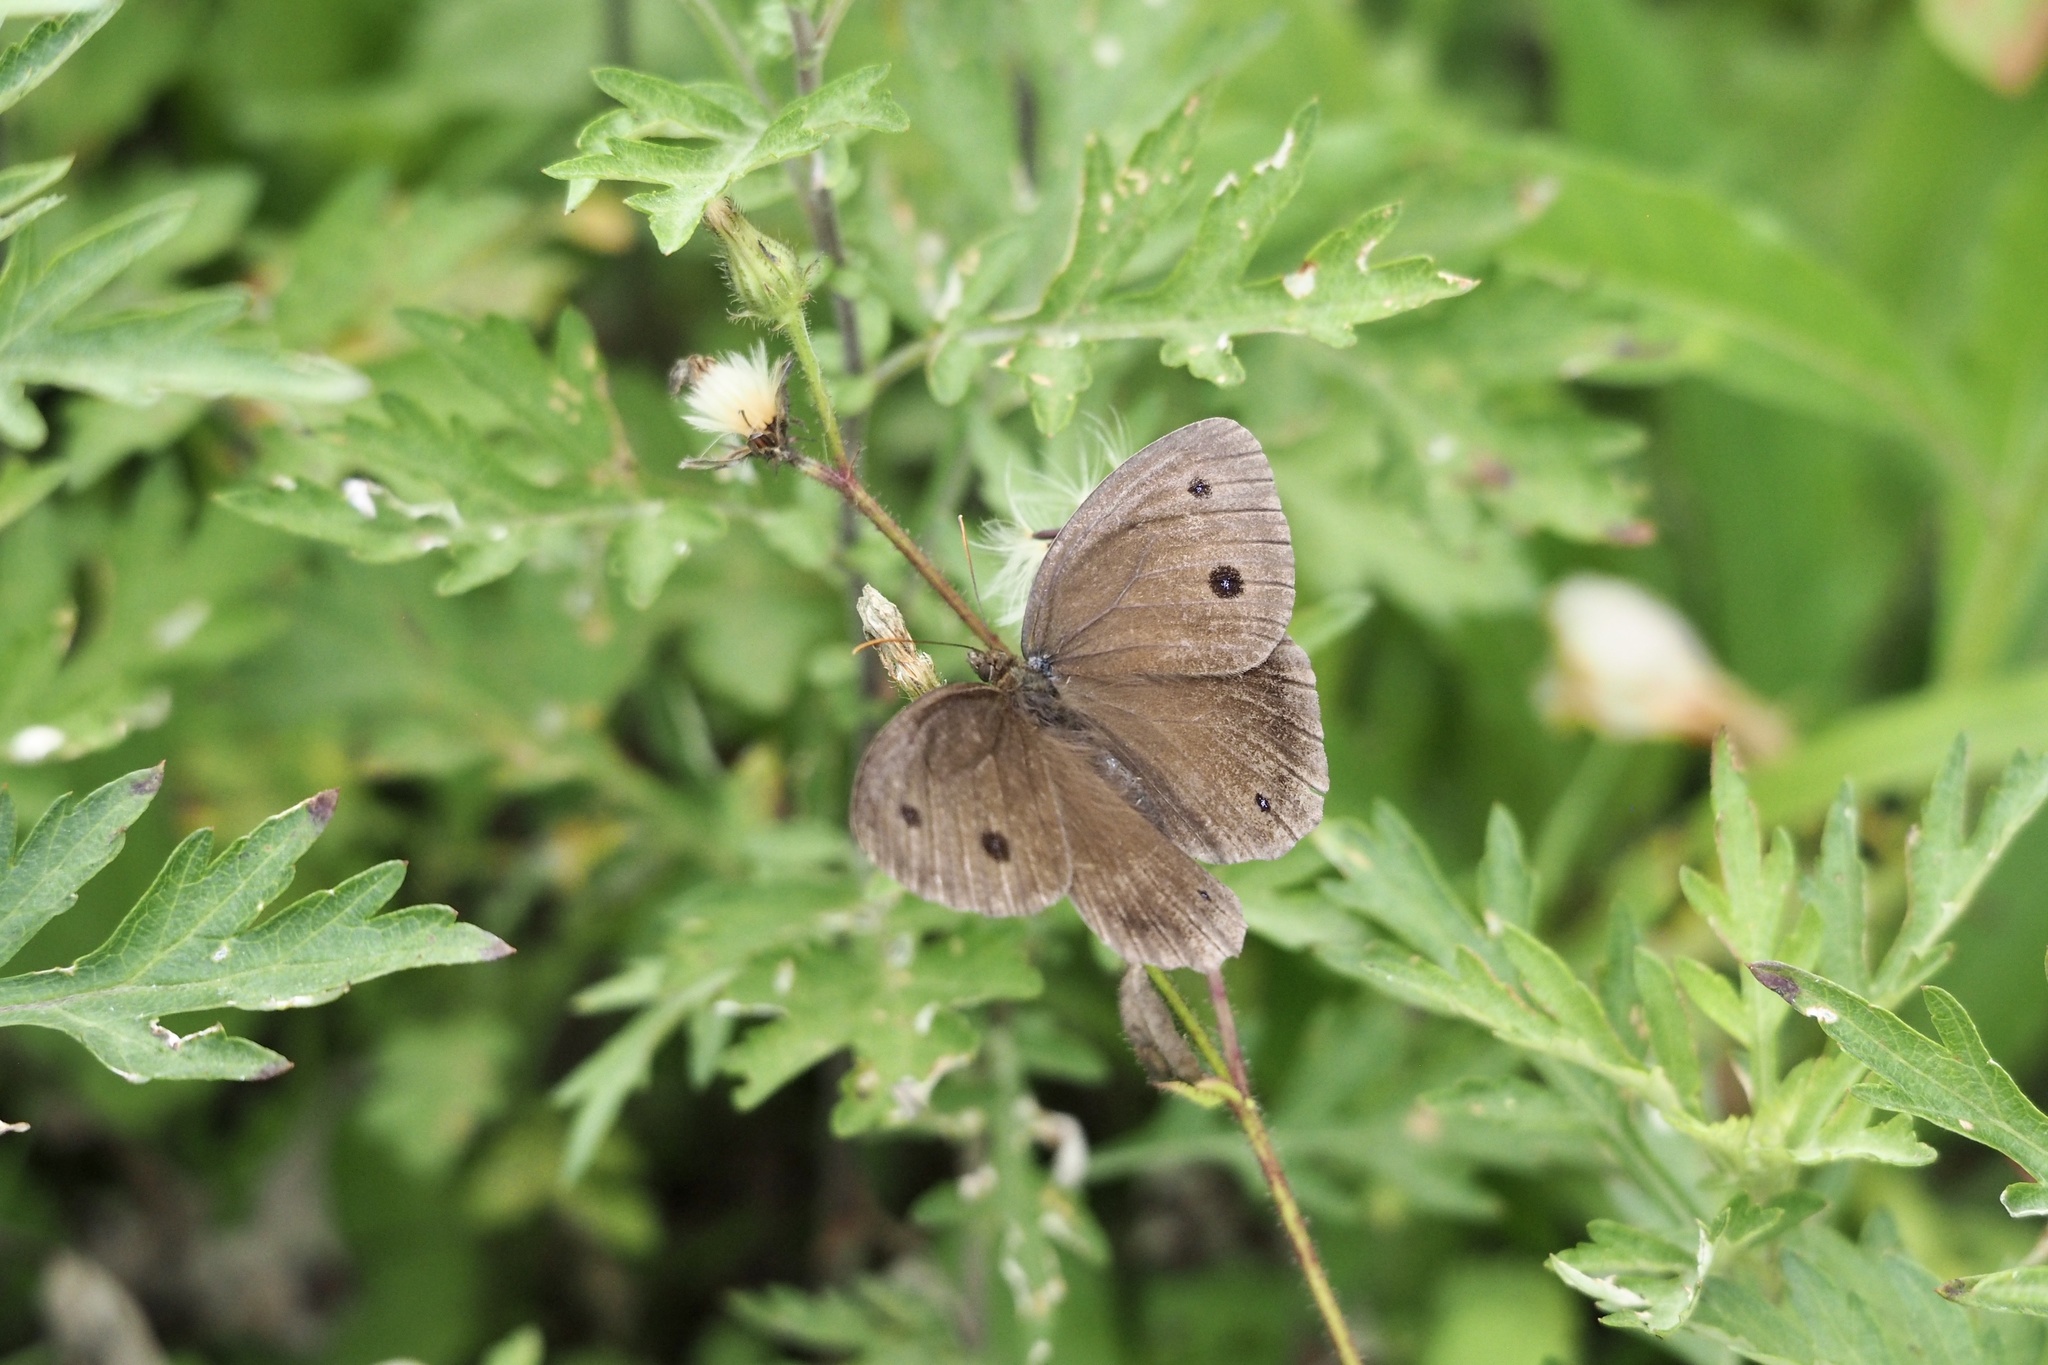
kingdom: Animalia
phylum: Arthropoda
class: Insecta
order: Lepidoptera
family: Nymphalidae
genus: Minois
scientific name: Minois dryas
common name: Dryad
